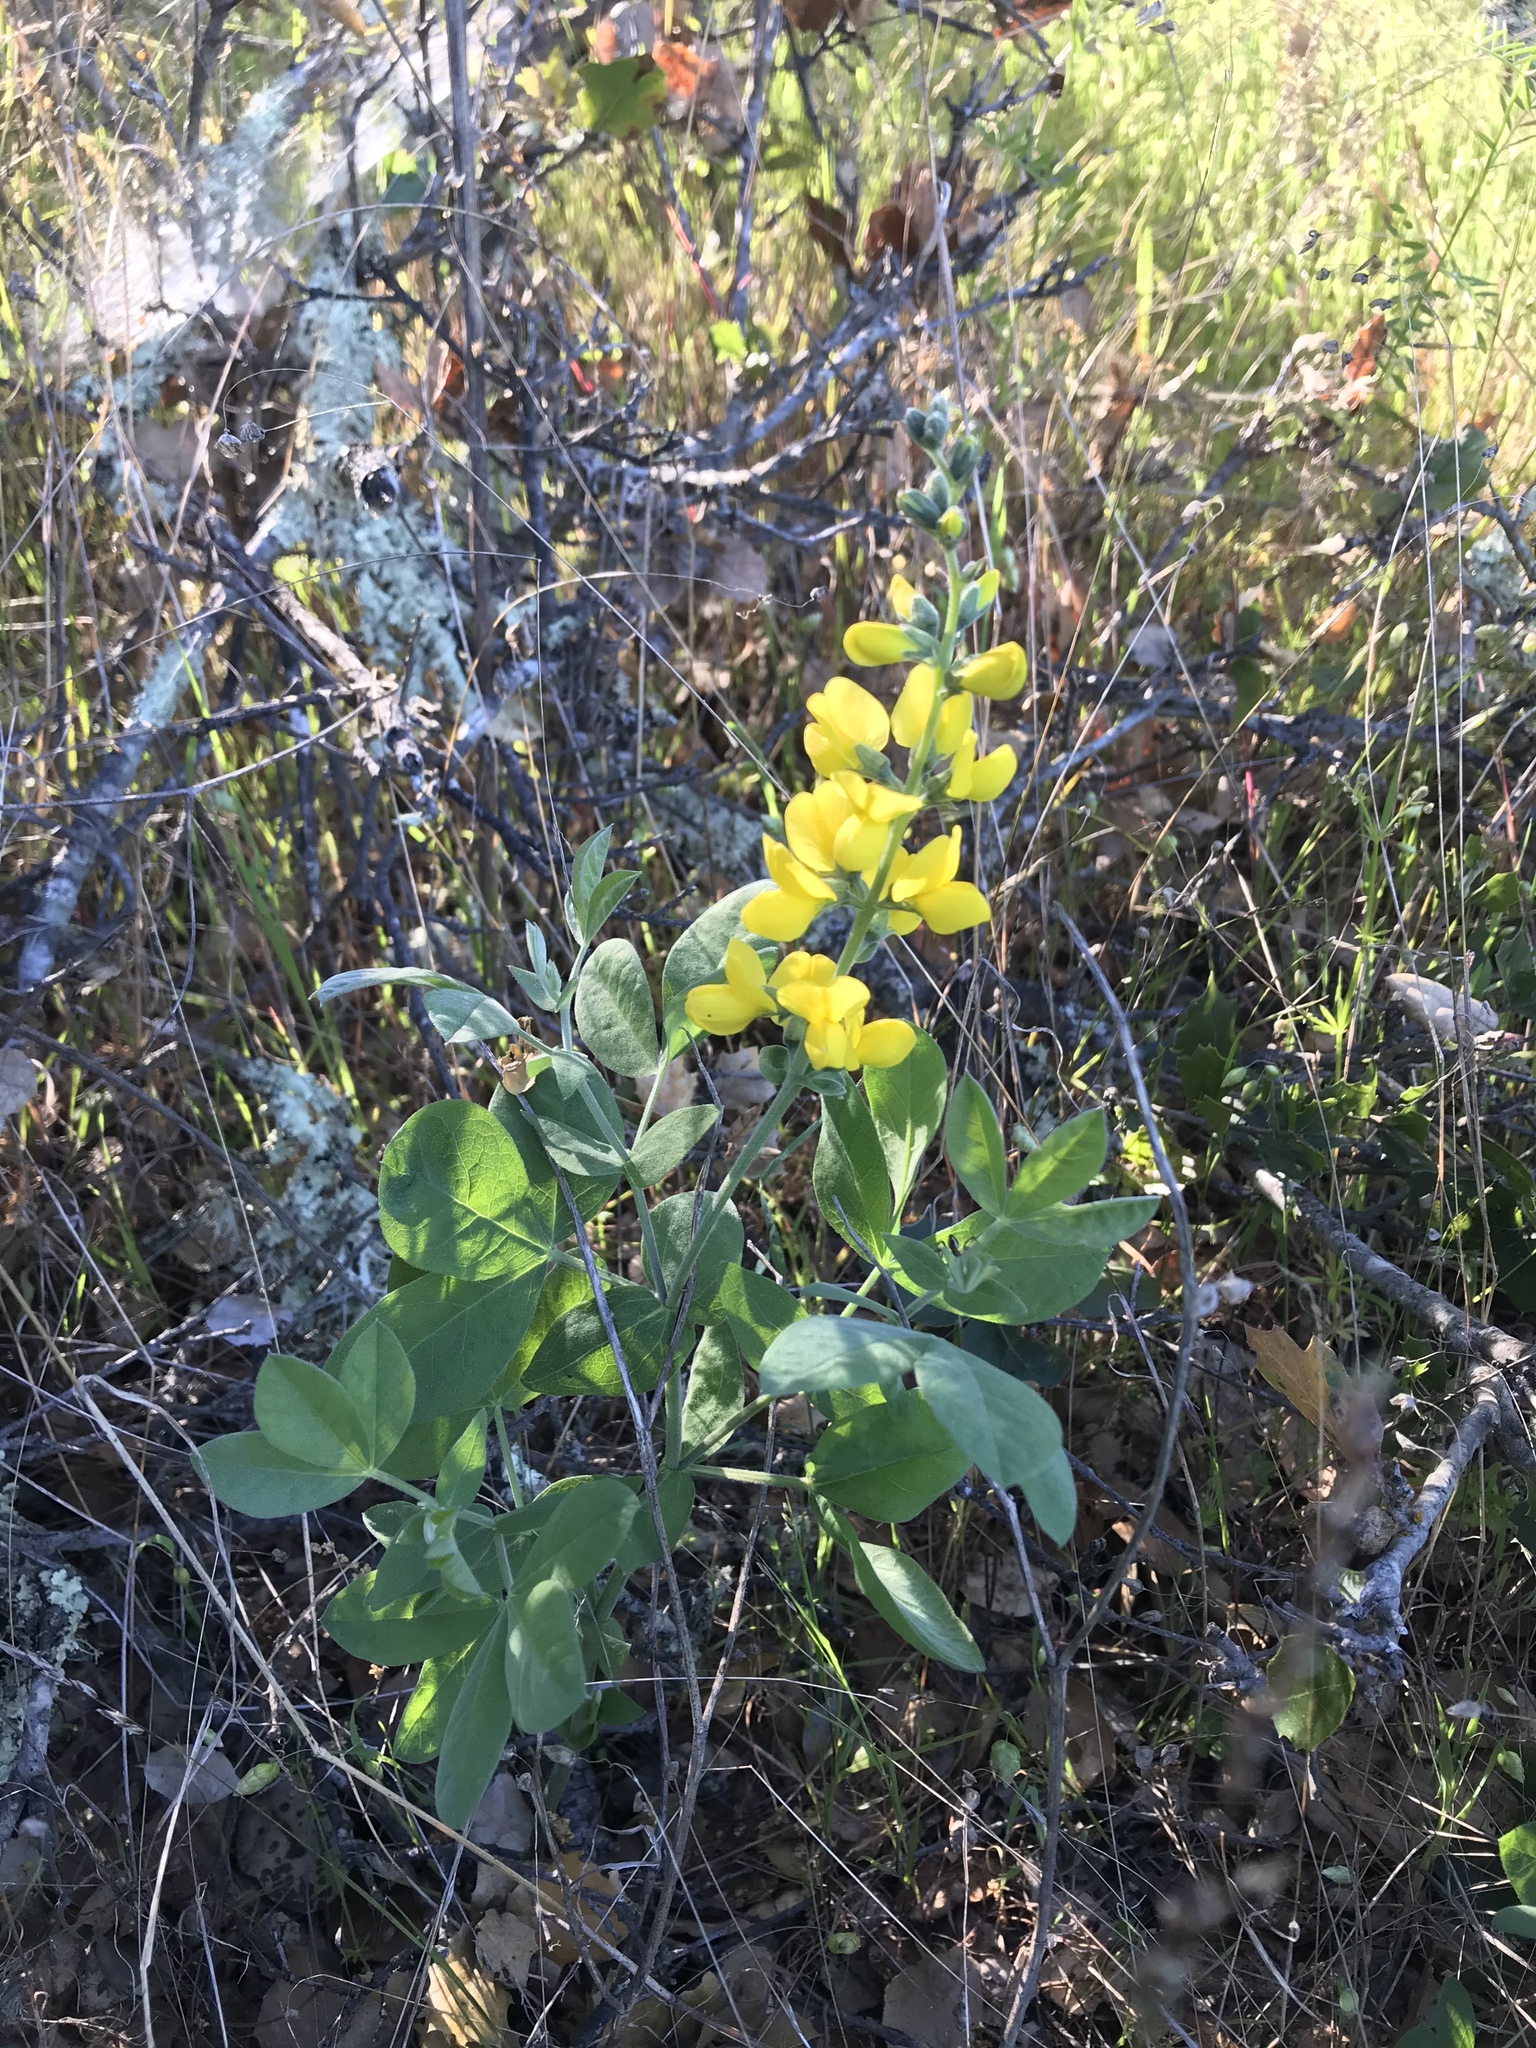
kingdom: Plantae
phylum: Tracheophyta
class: Magnoliopsida
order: Fabales
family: Fabaceae
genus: Thermopsis
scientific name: Thermopsis californica
